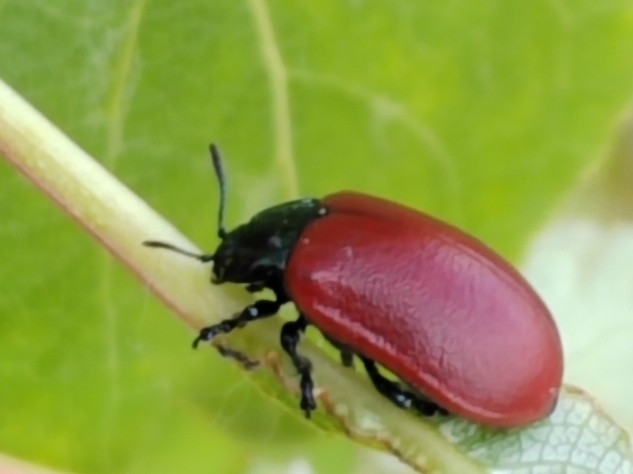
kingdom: Animalia
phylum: Arthropoda
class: Insecta
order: Coleoptera
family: Chrysomelidae
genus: Chrysomela
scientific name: Chrysomela populi
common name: Red poplar leaf beetle
